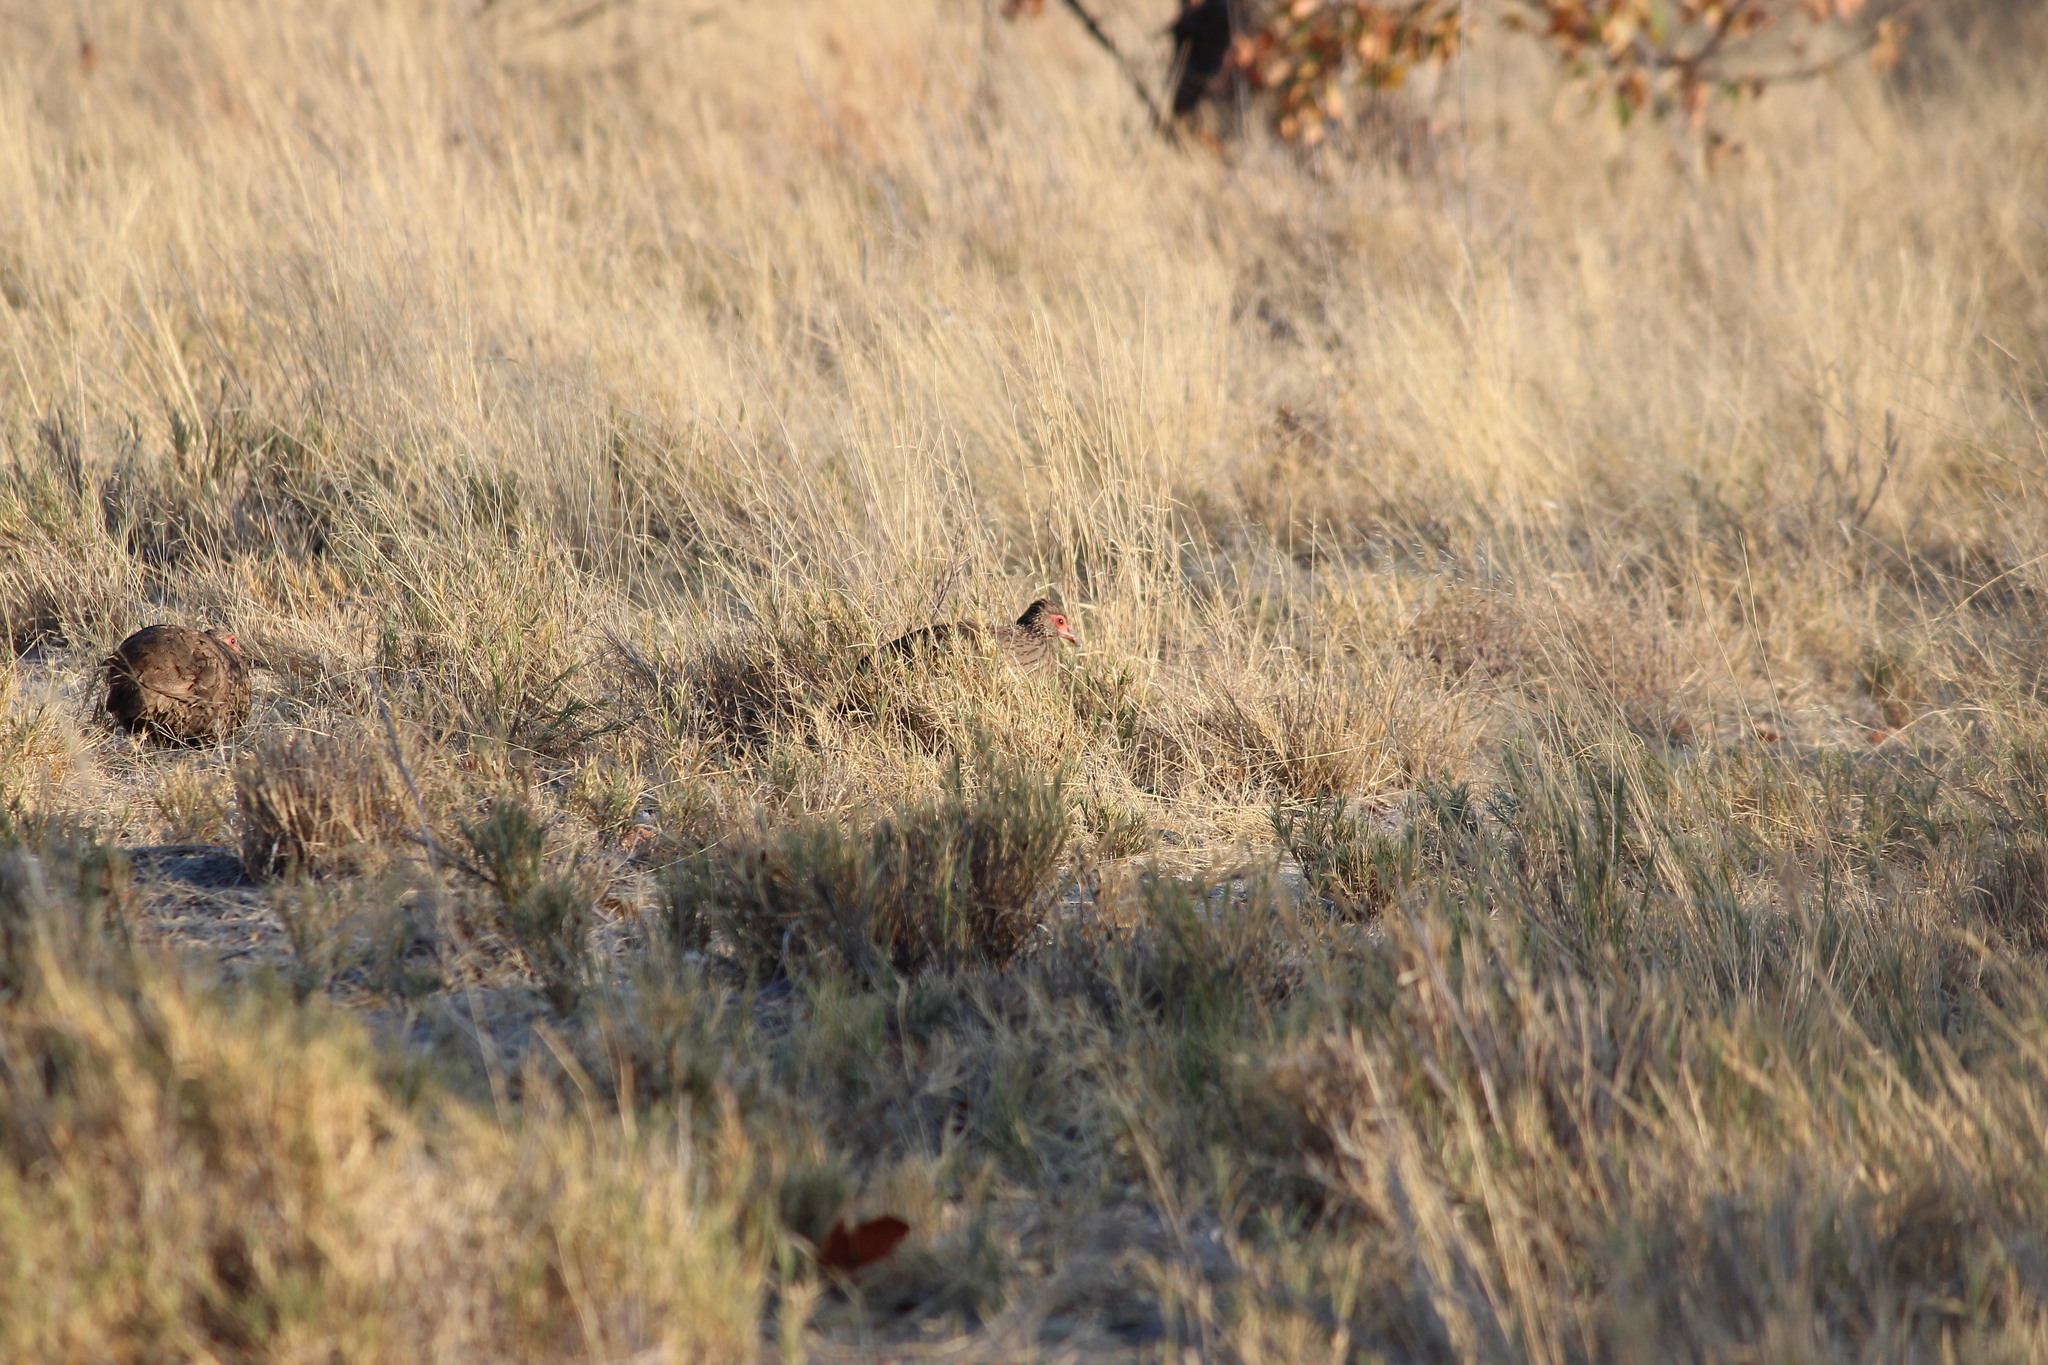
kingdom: Animalia
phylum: Chordata
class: Aves
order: Galliformes
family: Phasianidae
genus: Pternistis
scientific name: Pternistis swainsonii
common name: Swainson's spurfowl
